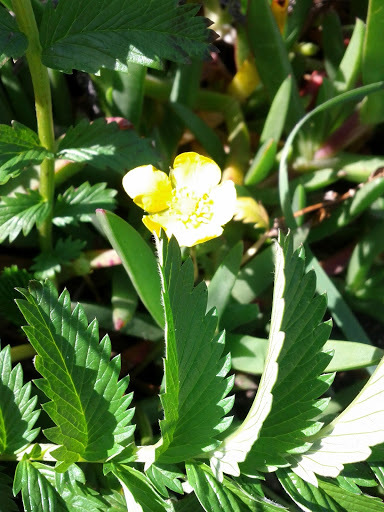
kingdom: Plantae
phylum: Tracheophyta
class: Magnoliopsida
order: Rosales
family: Rosaceae
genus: Argentina
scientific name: Argentina anserina
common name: Common silverweed
